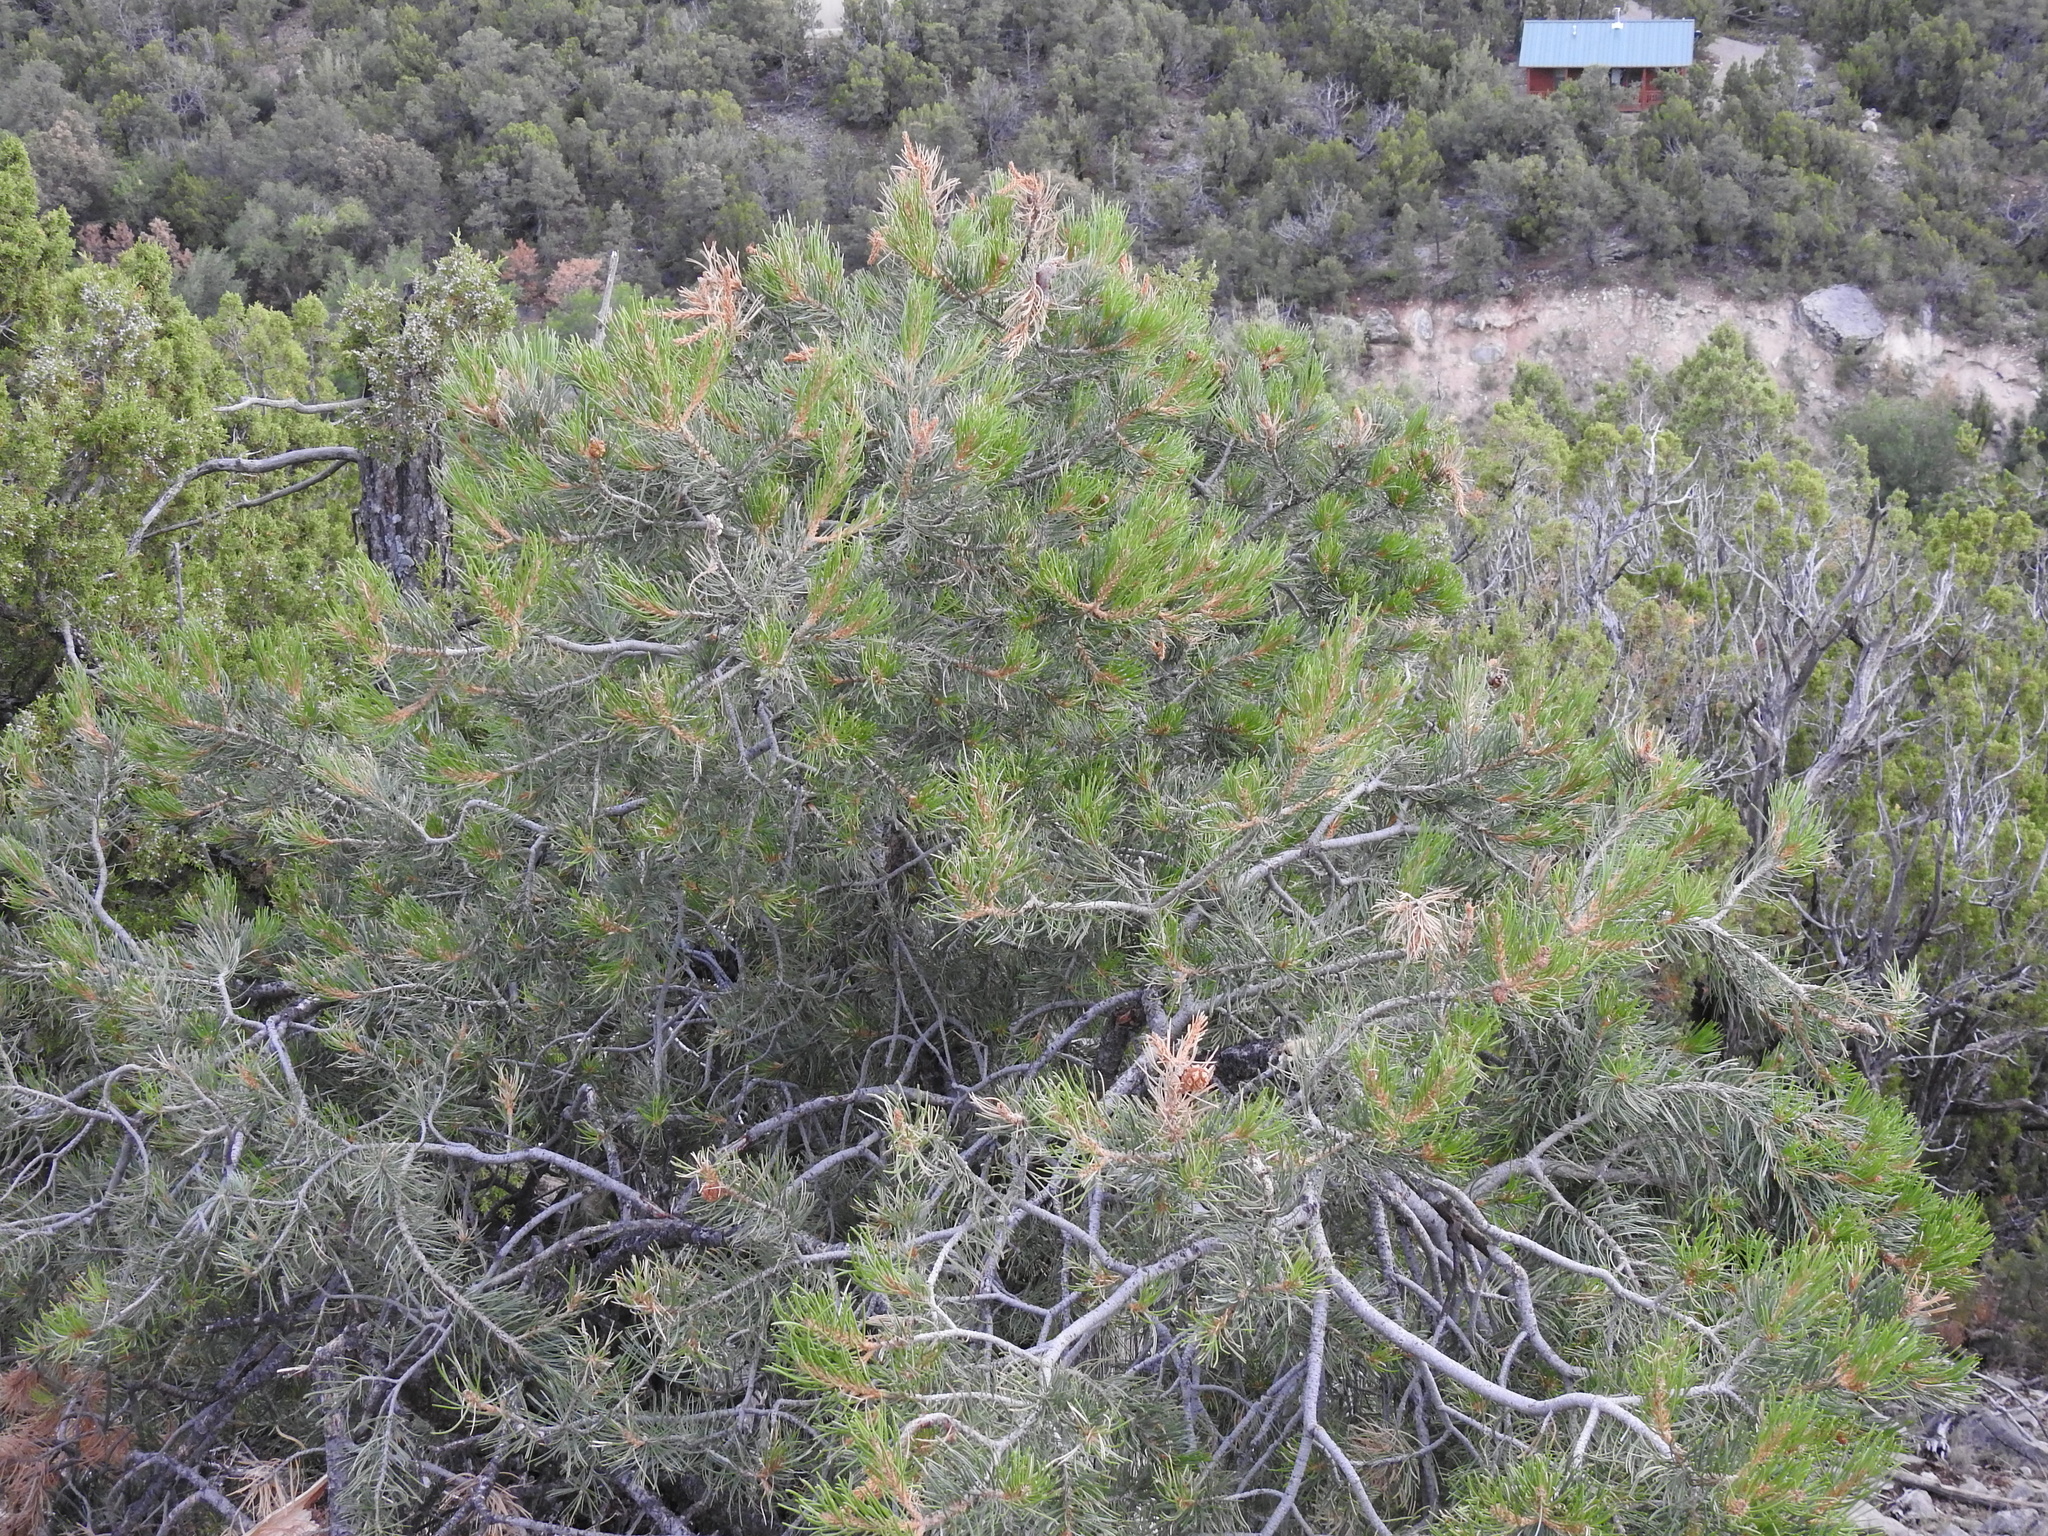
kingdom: Plantae
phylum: Tracheophyta
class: Pinopsida
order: Pinales
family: Pinaceae
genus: Pinus
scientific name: Pinus edulis
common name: Colorado pinyon
